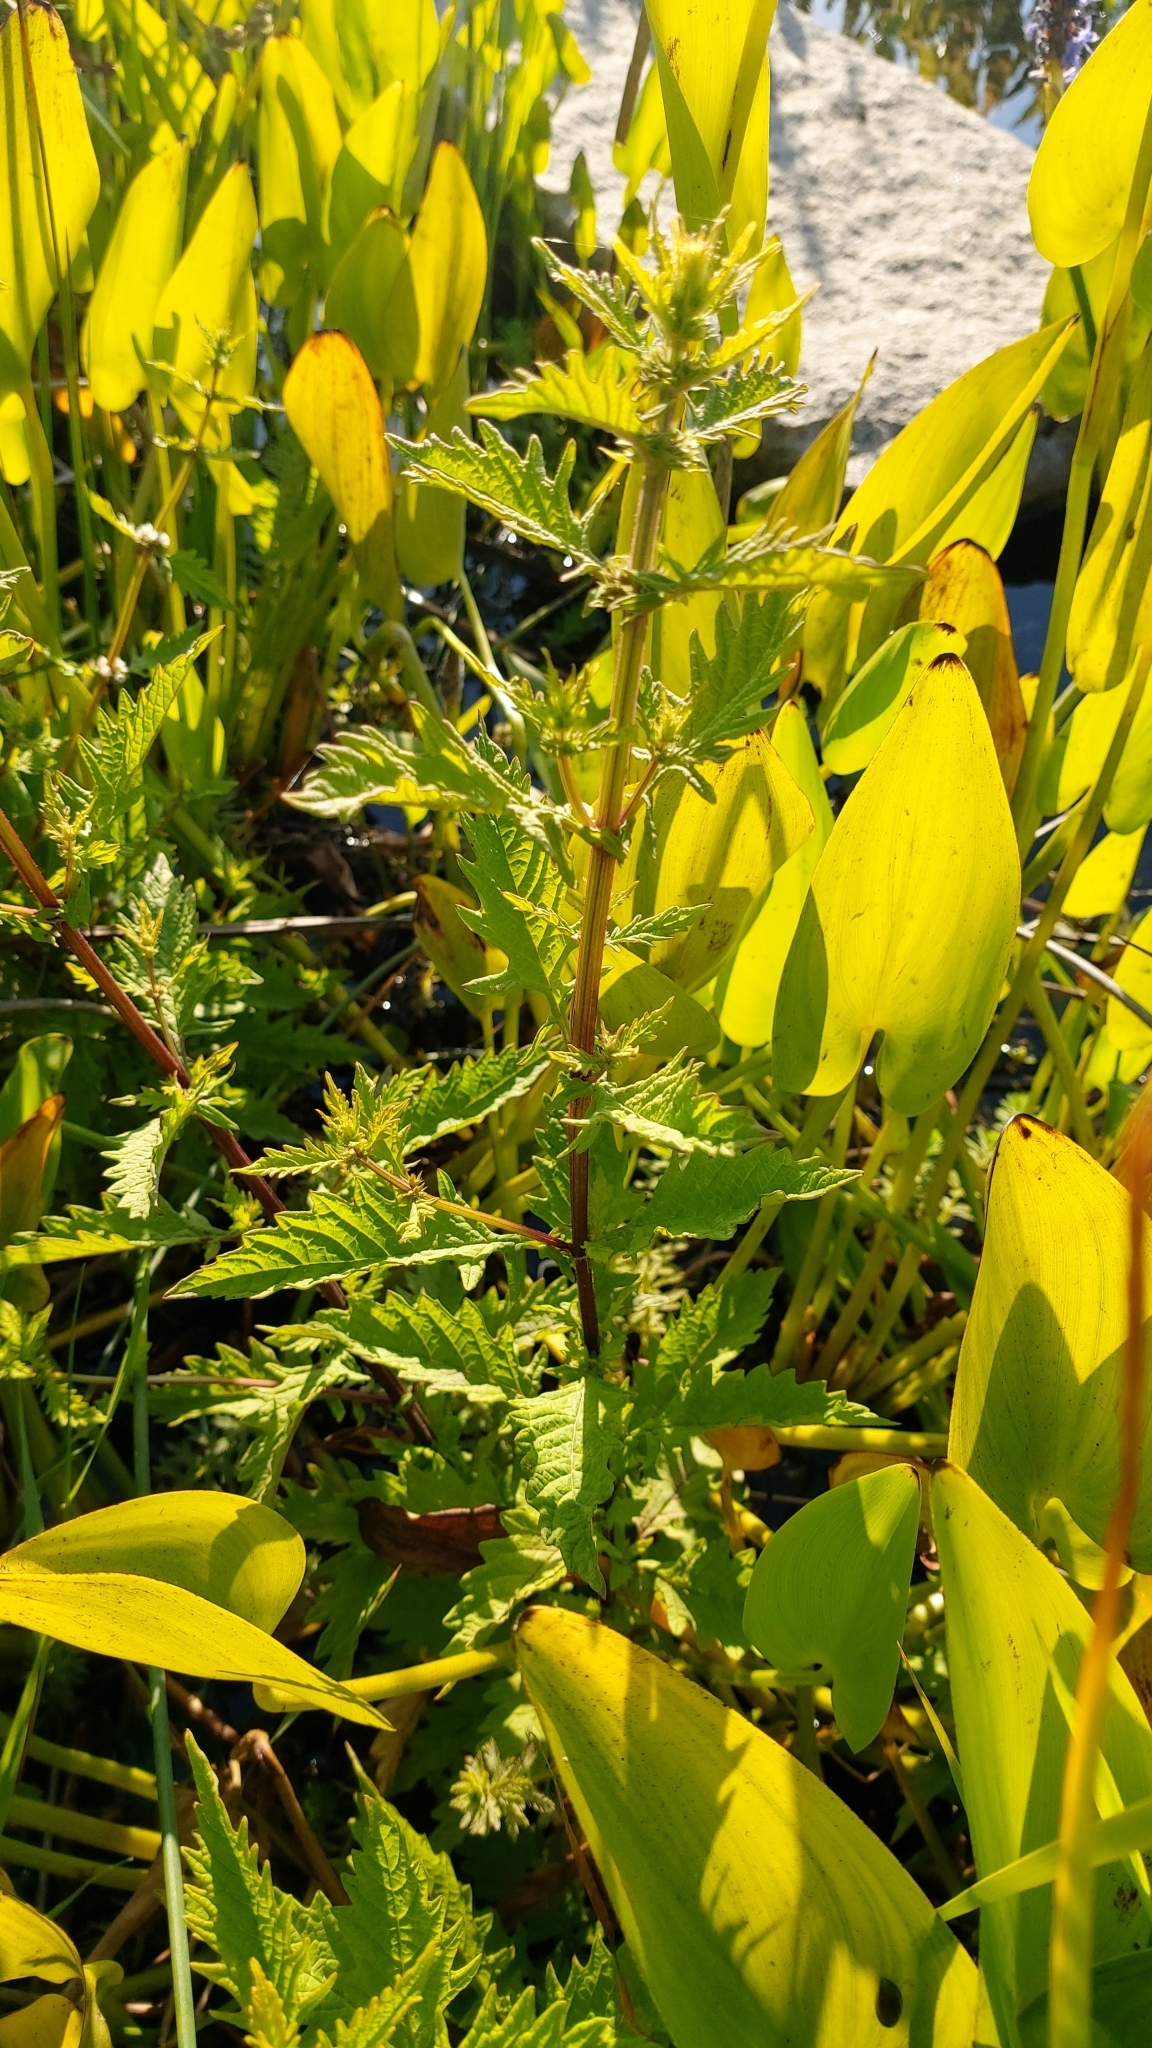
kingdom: Plantae
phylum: Tracheophyta
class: Magnoliopsida
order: Lamiales
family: Lamiaceae
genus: Lycopus
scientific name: Lycopus europaeus
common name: European bugleweed
